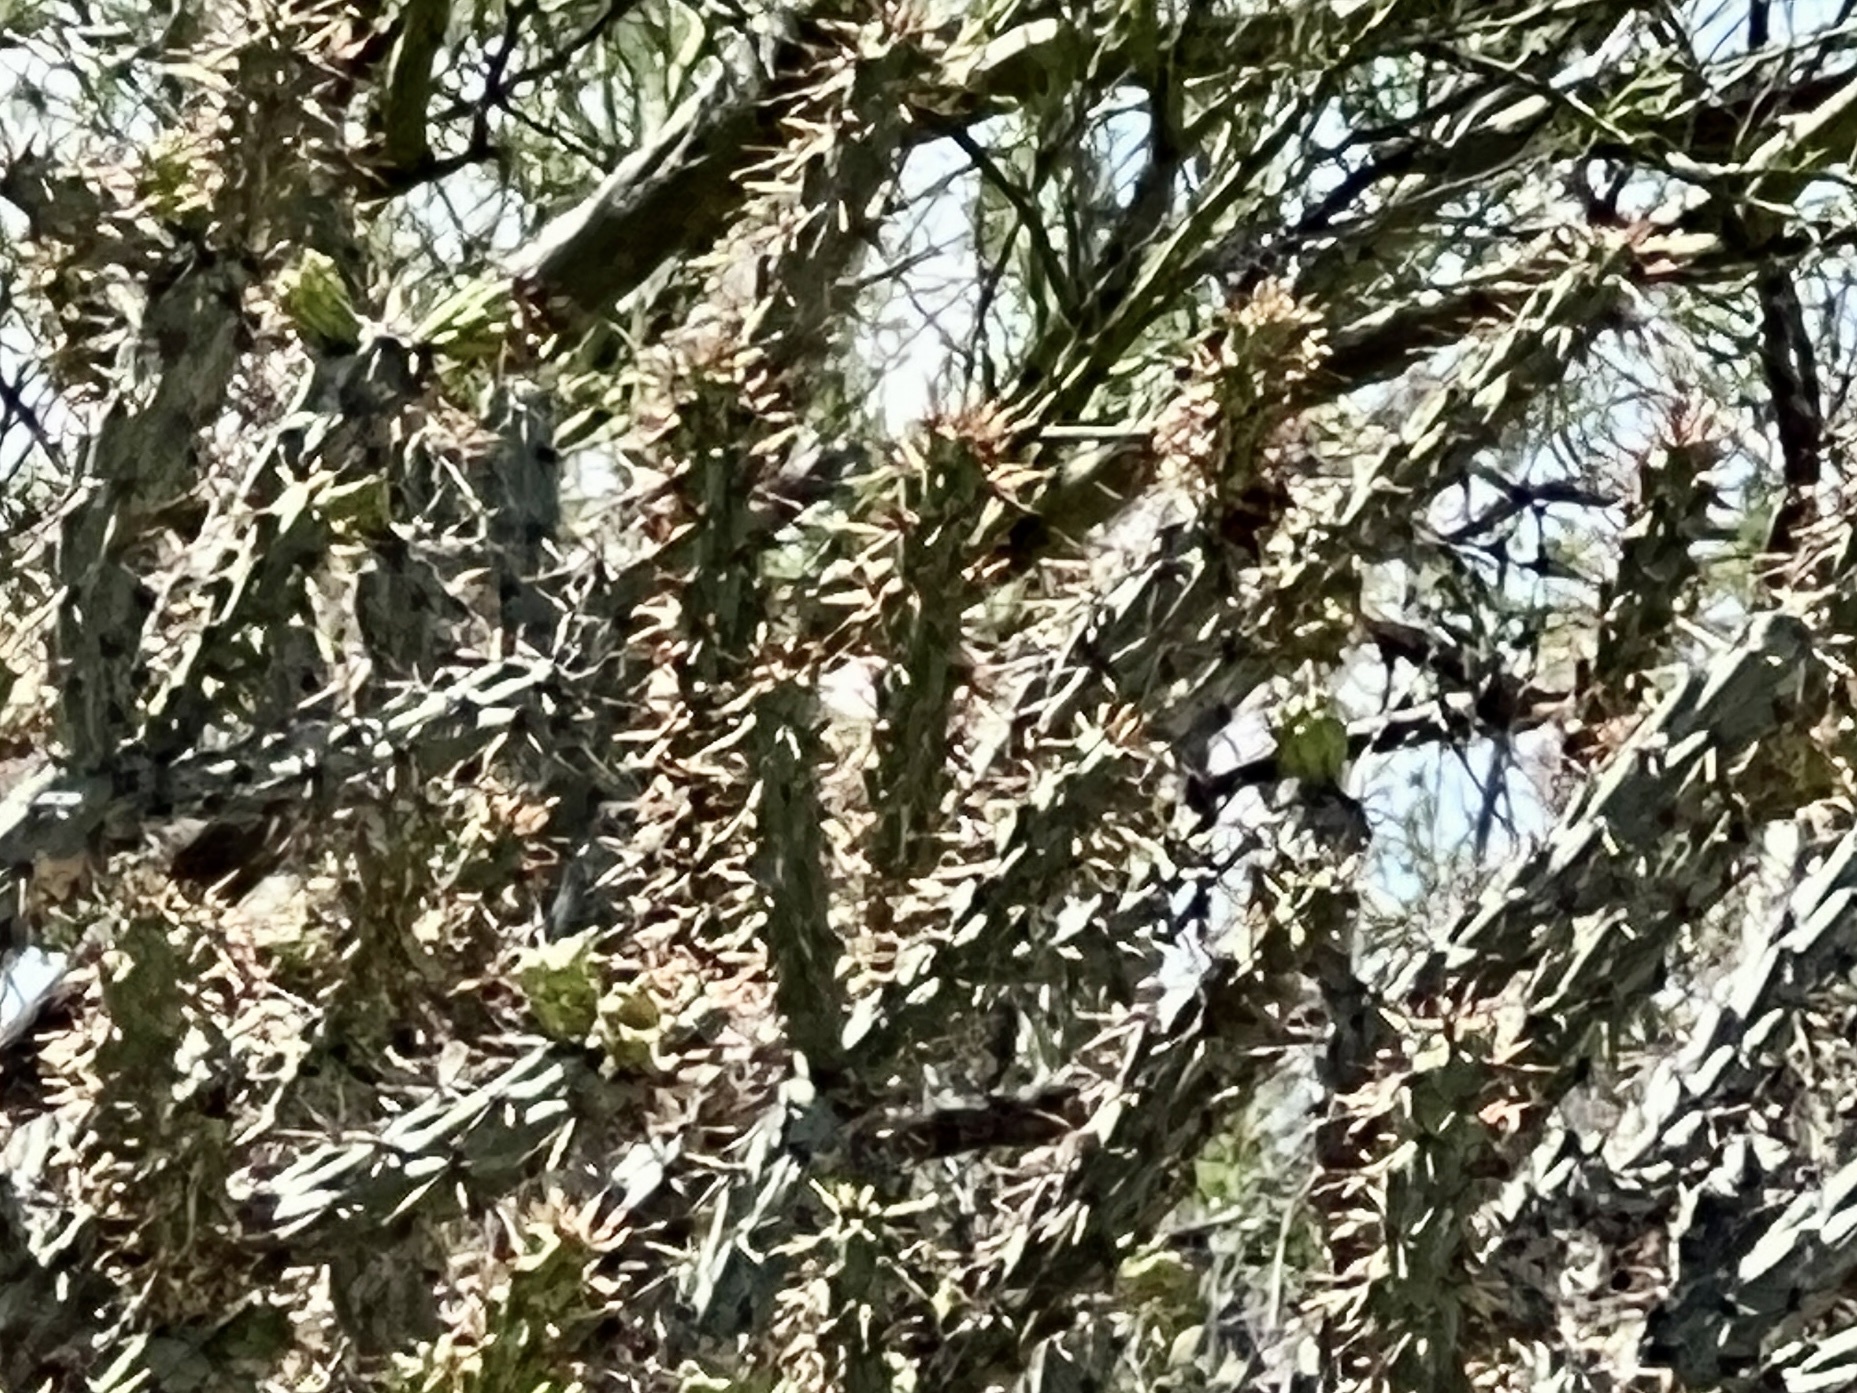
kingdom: Plantae
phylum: Tracheophyta
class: Magnoliopsida
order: Caryophyllales
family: Cactaceae
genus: Cylindropuntia
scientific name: Cylindropuntia thurberi
